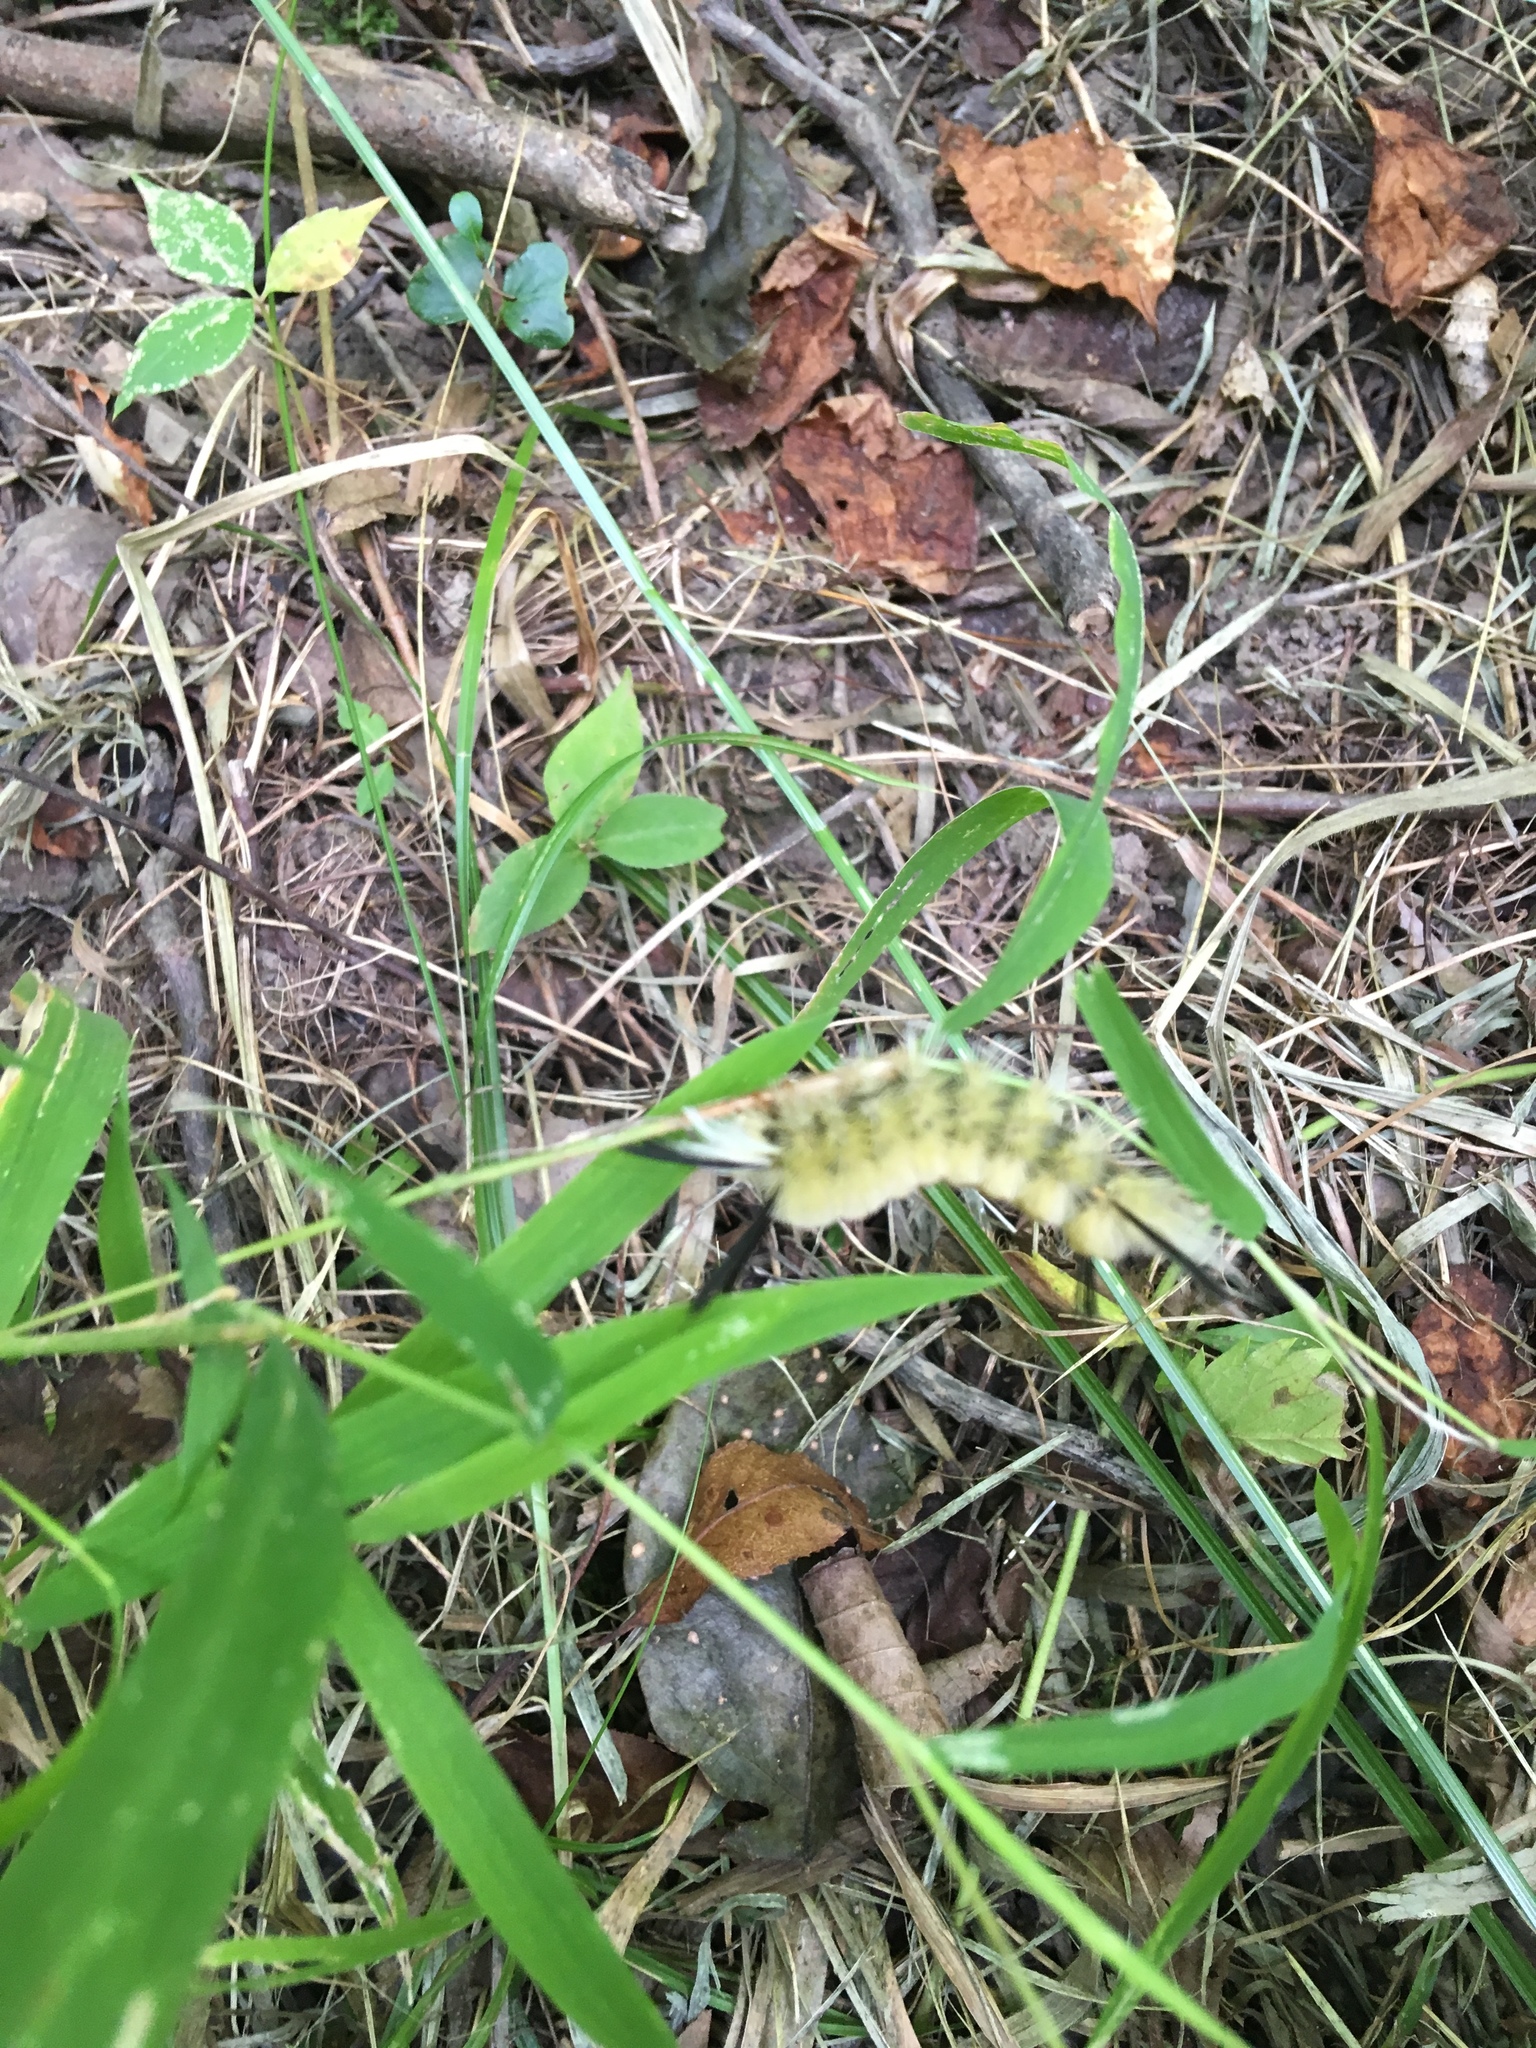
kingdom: Animalia
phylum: Arthropoda
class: Insecta
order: Lepidoptera
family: Erebidae
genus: Halysidota
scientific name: Halysidota tessellaris
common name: Banded tussock moth
